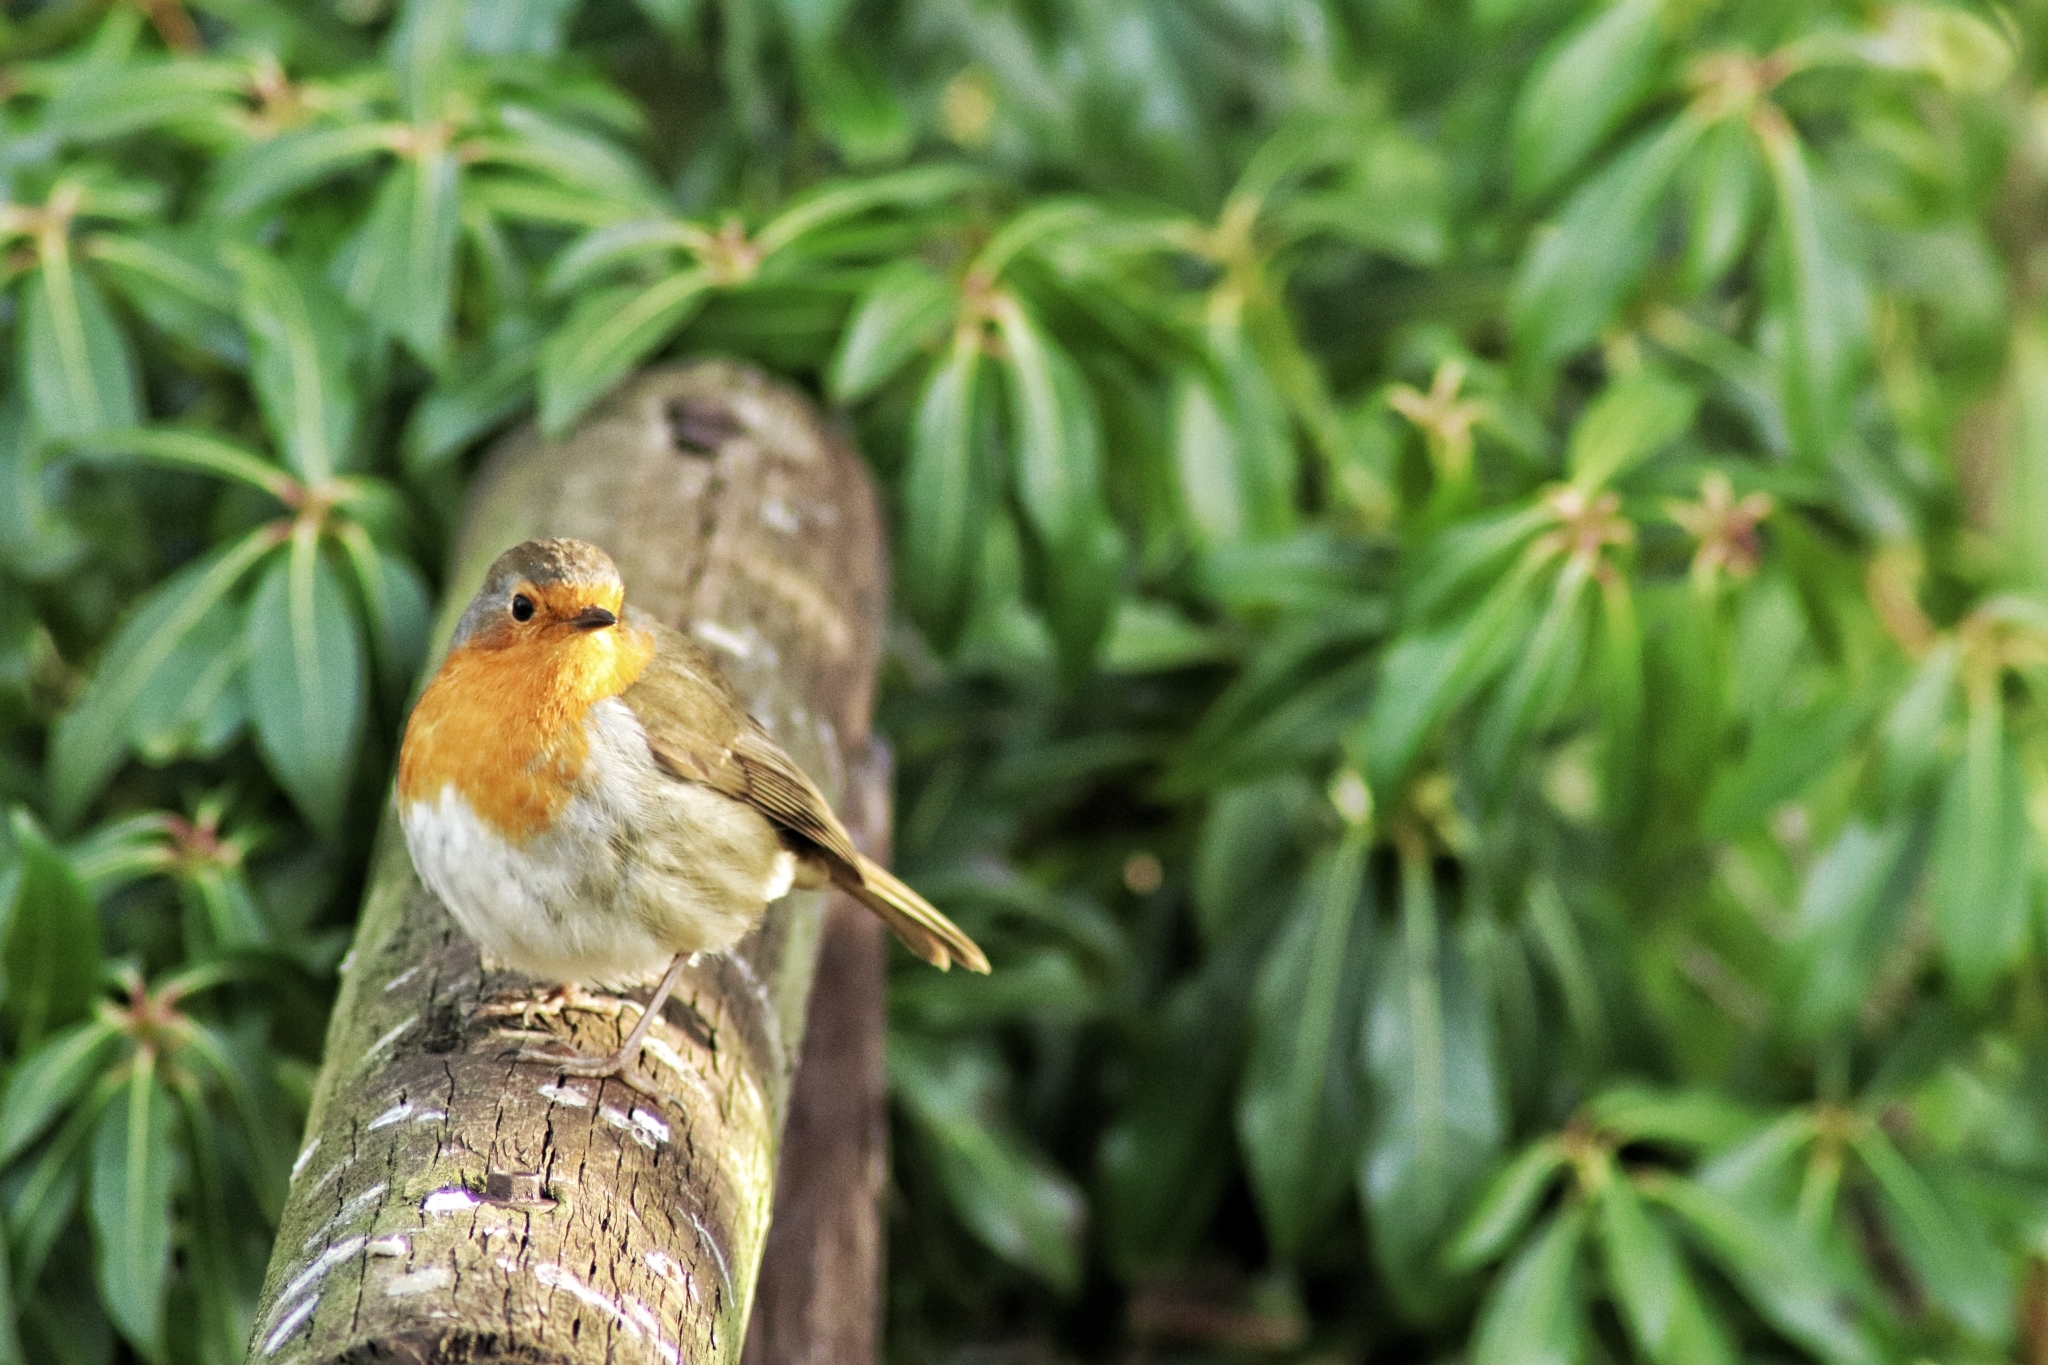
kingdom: Animalia
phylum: Chordata
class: Aves
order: Passeriformes
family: Muscicapidae
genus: Erithacus
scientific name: Erithacus rubecula
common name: European robin
